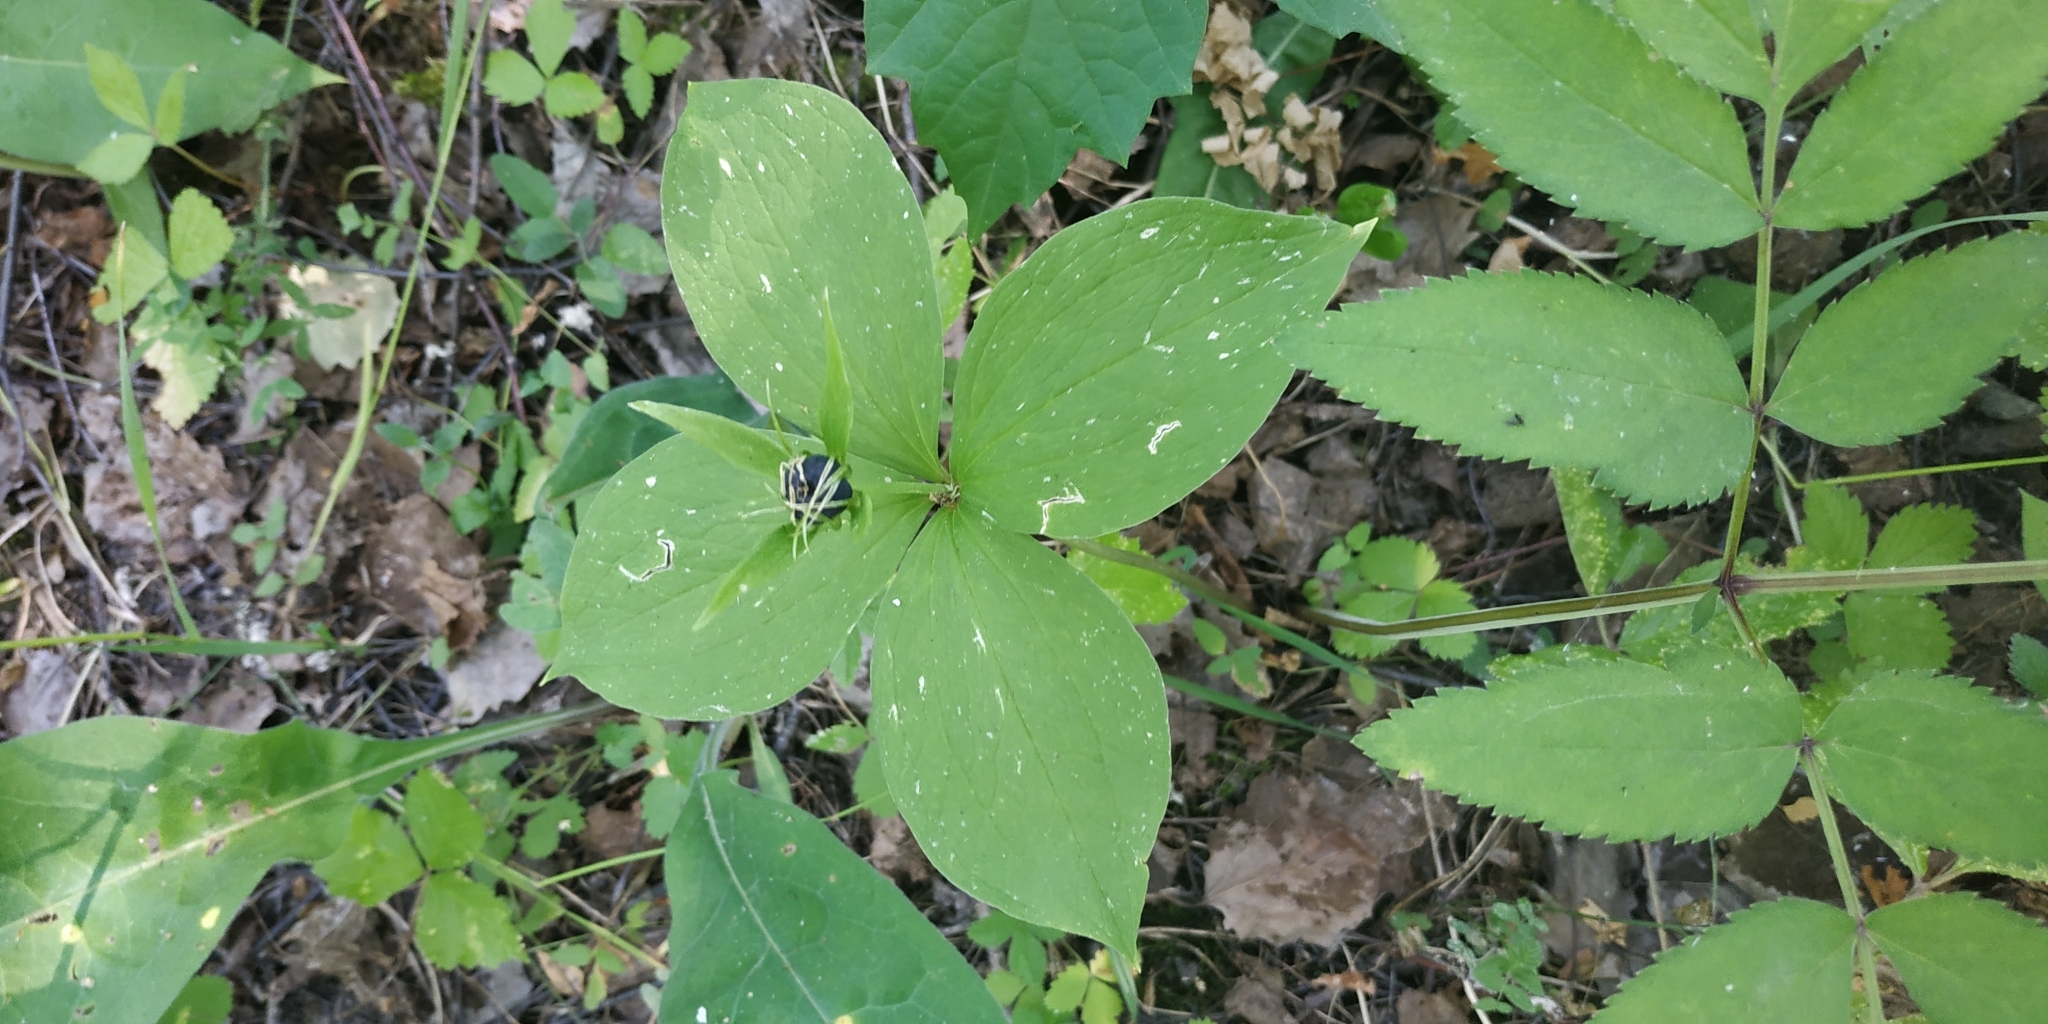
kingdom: Plantae
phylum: Tracheophyta
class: Liliopsida
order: Liliales
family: Melanthiaceae
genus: Paris
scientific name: Paris quadrifolia
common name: Herb-paris
